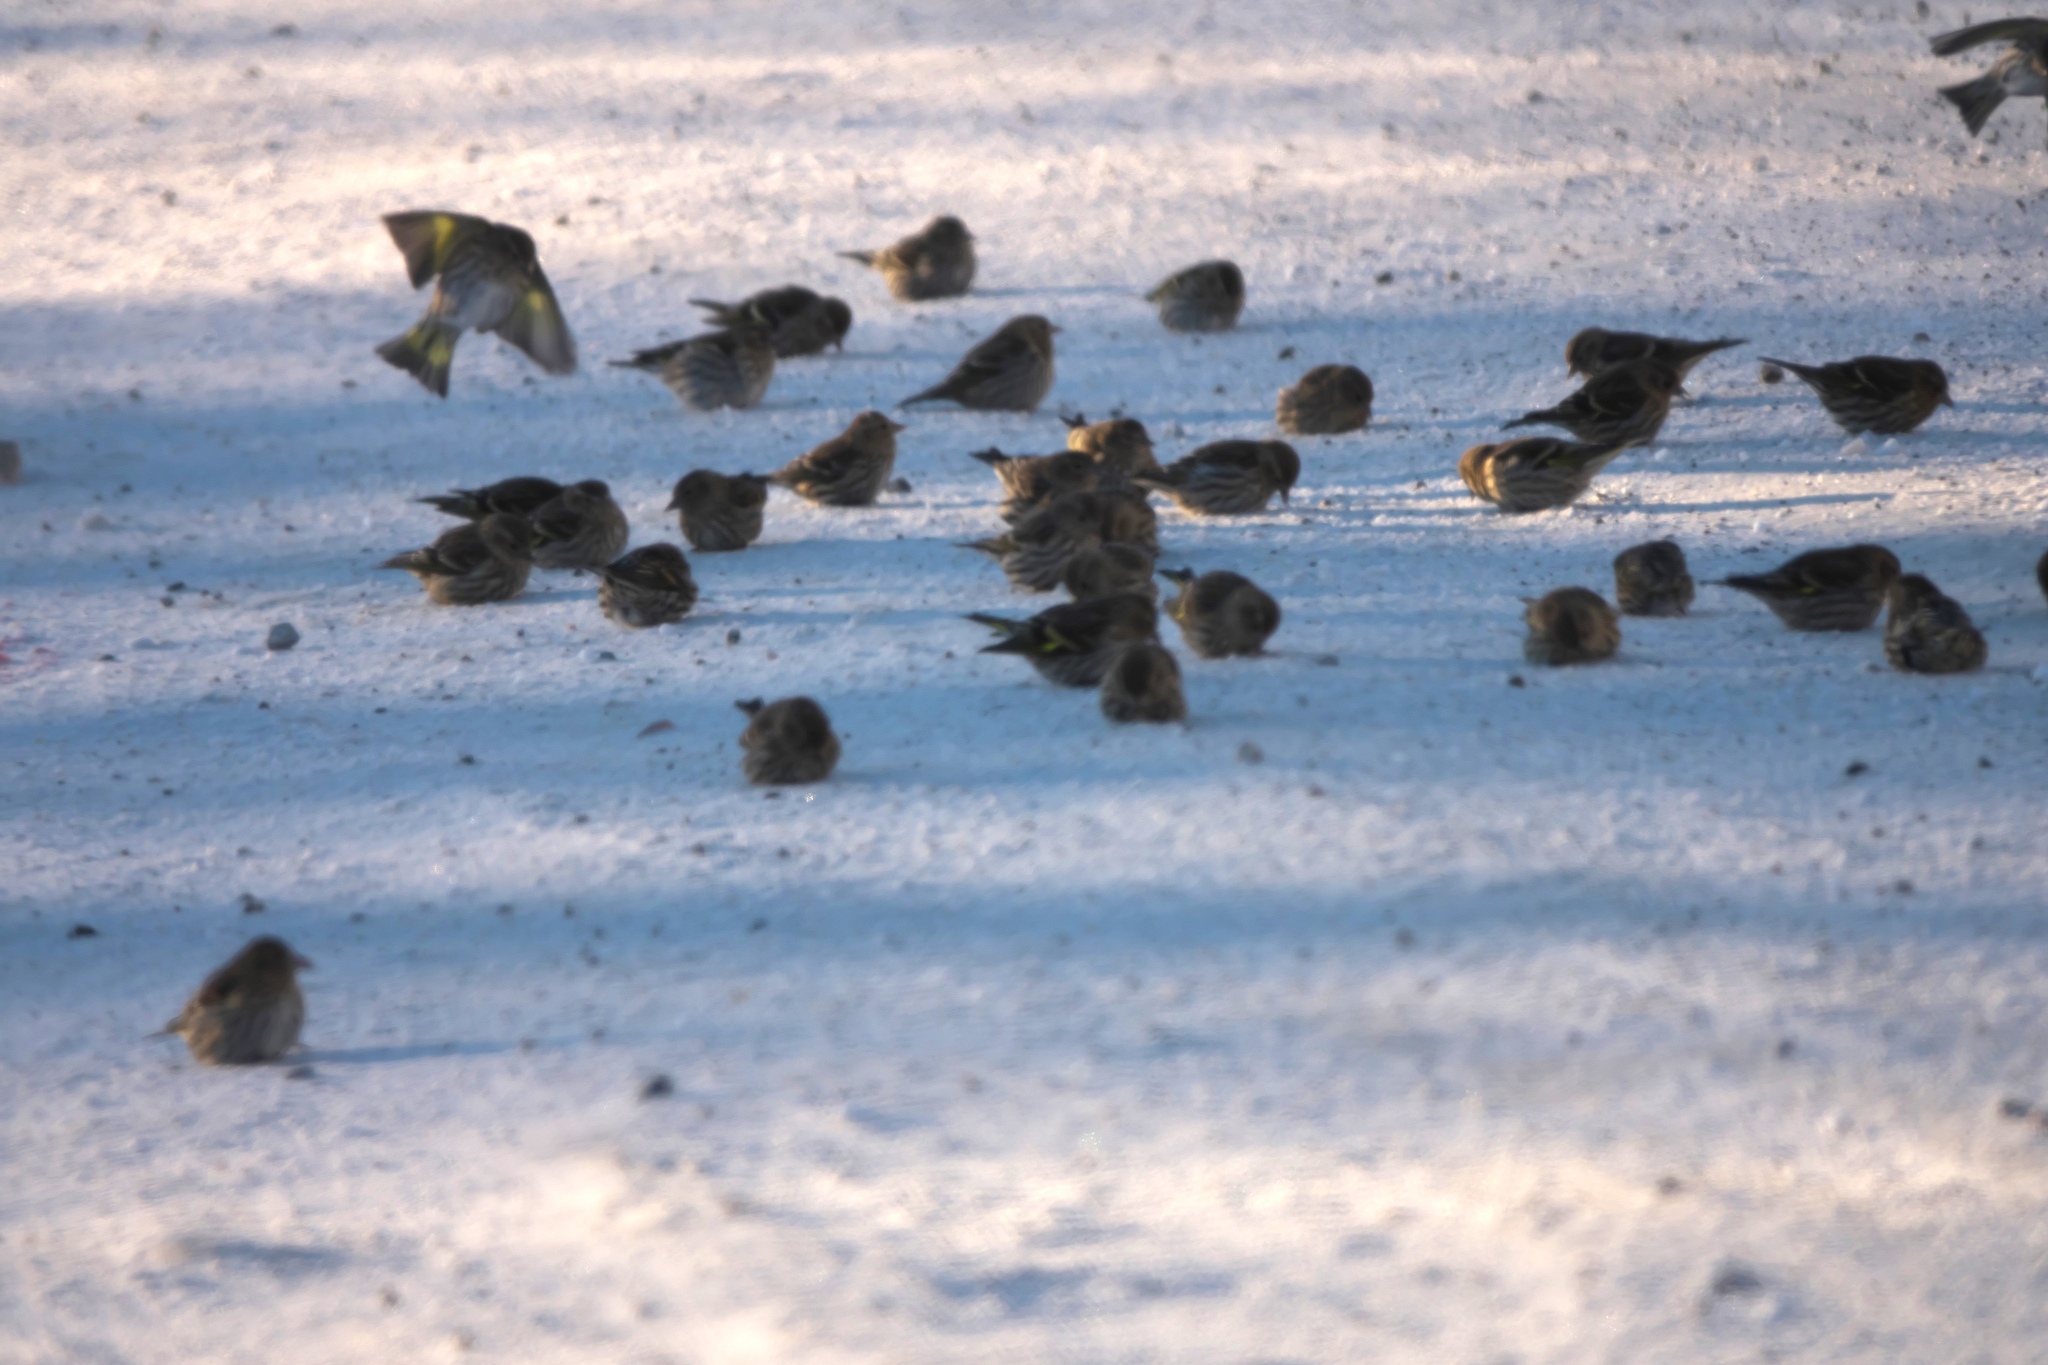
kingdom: Animalia
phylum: Chordata
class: Aves
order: Passeriformes
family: Fringillidae
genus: Spinus
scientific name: Spinus pinus
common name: Pine siskin
